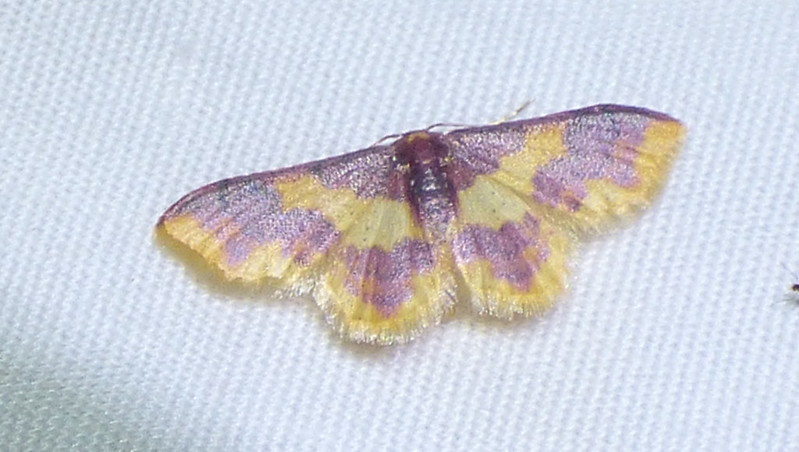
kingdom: Animalia
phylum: Arthropoda
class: Insecta
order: Lepidoptera
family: Geometridae
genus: Lophosis
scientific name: Lophosis labeculata
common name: Stained lophosis moth
